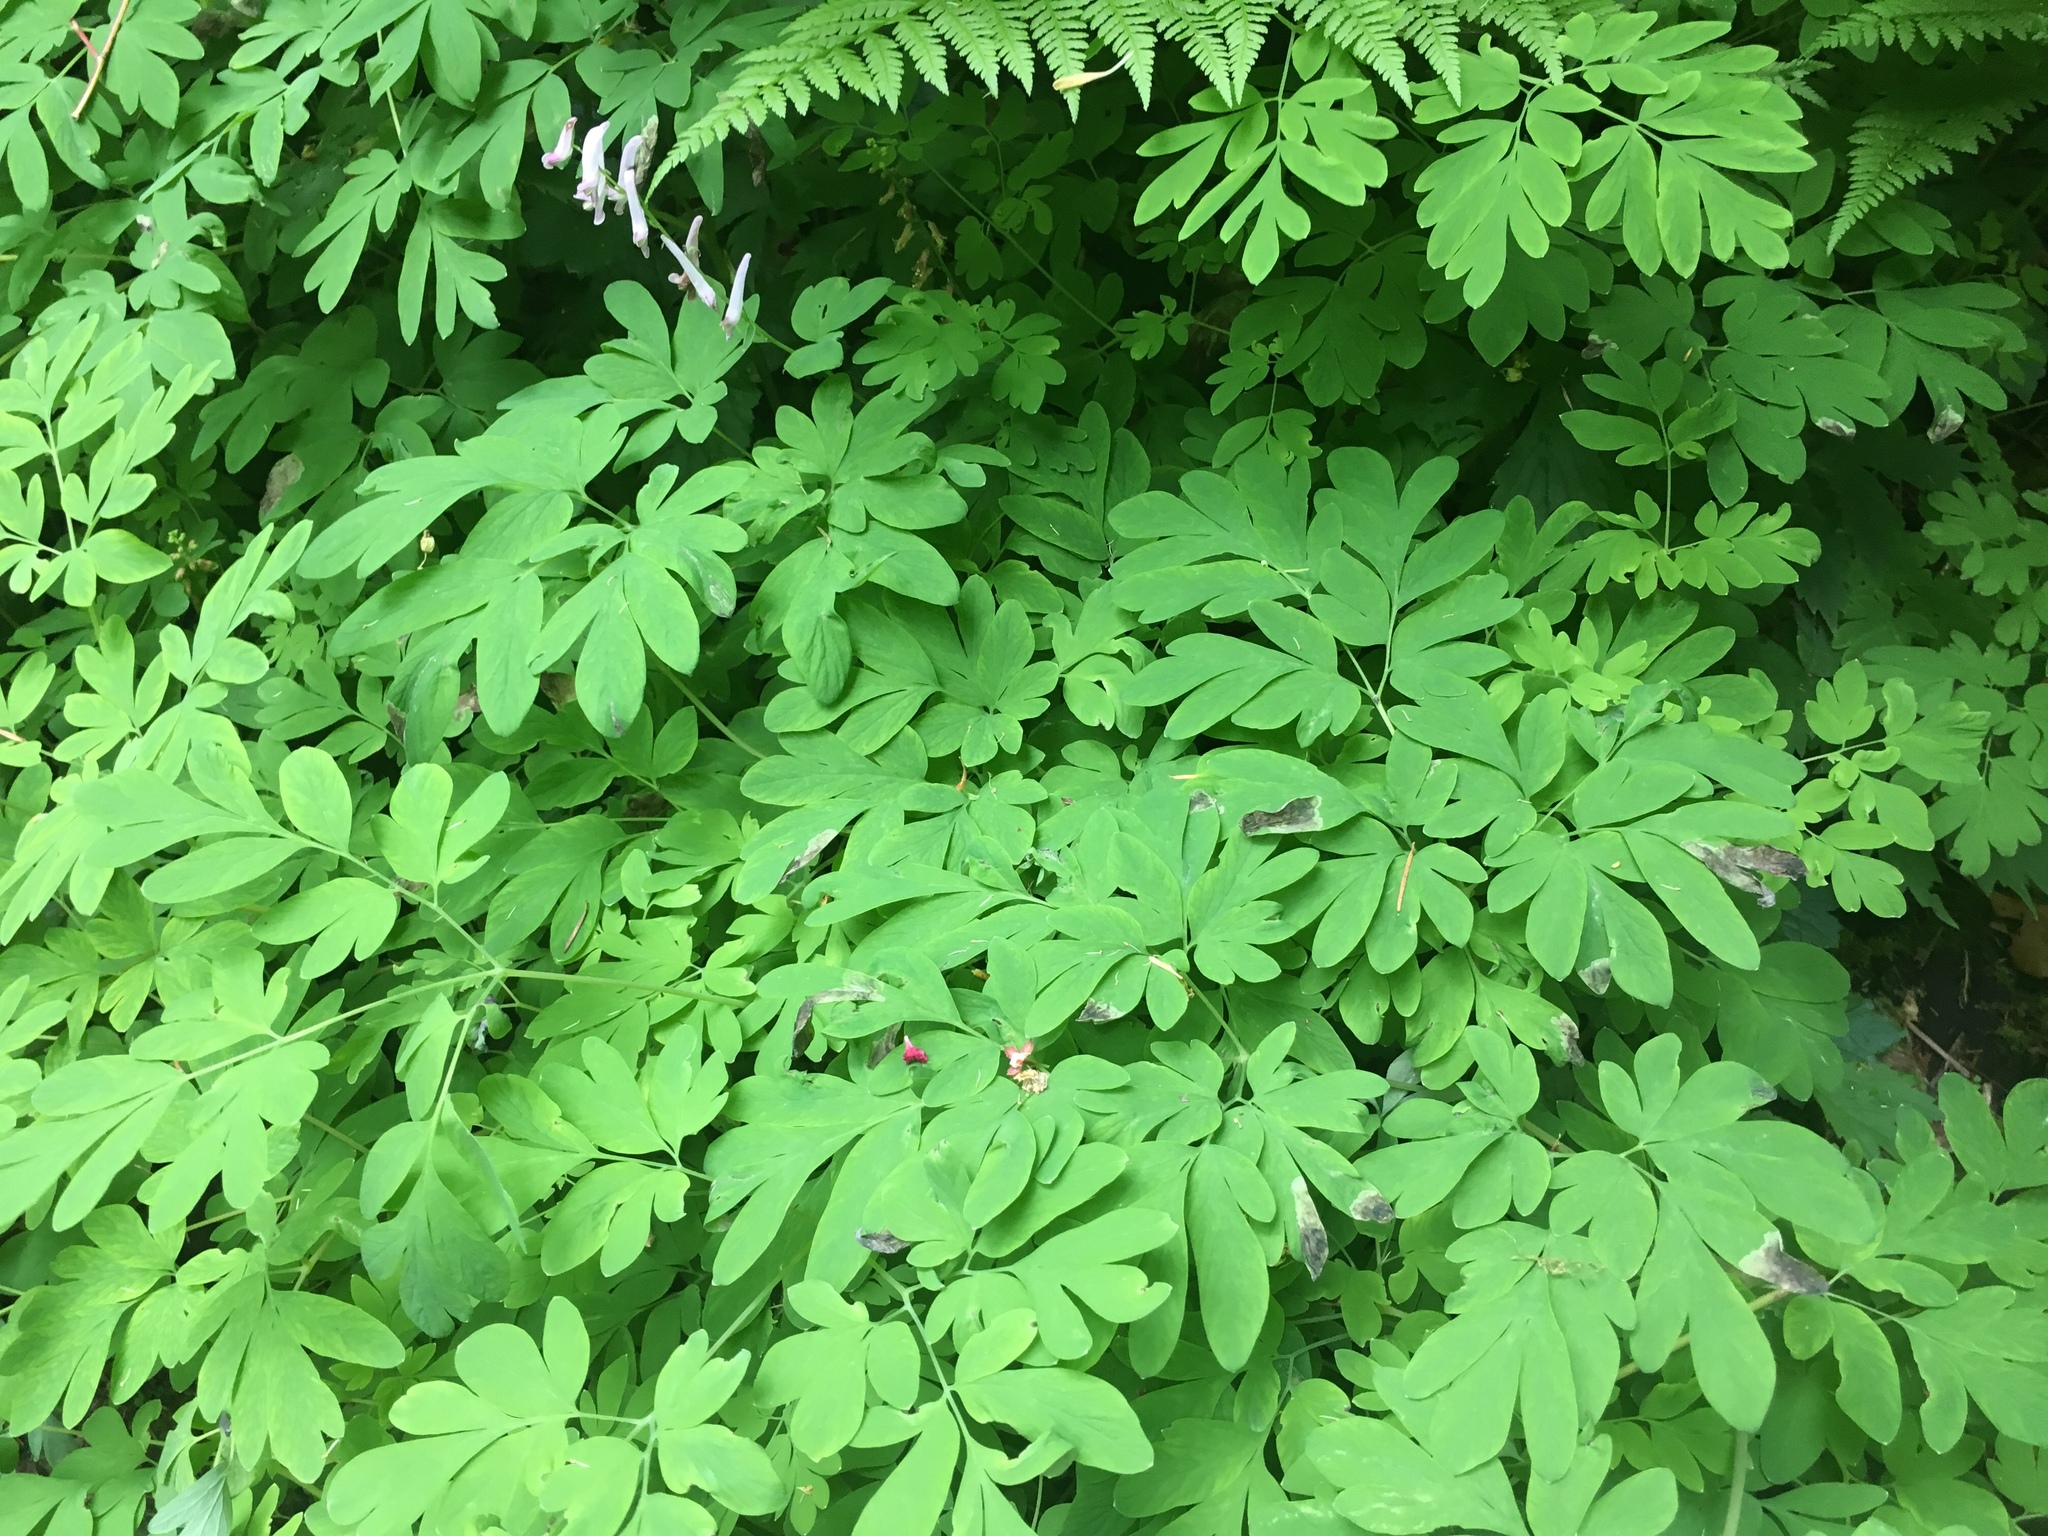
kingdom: Plantae
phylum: Tracheophyta
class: Magnoliopsida
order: Ranunculales
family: Papaveraceae
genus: Corydalis
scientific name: Corydalis scouleri
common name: Scouler's corydalis
